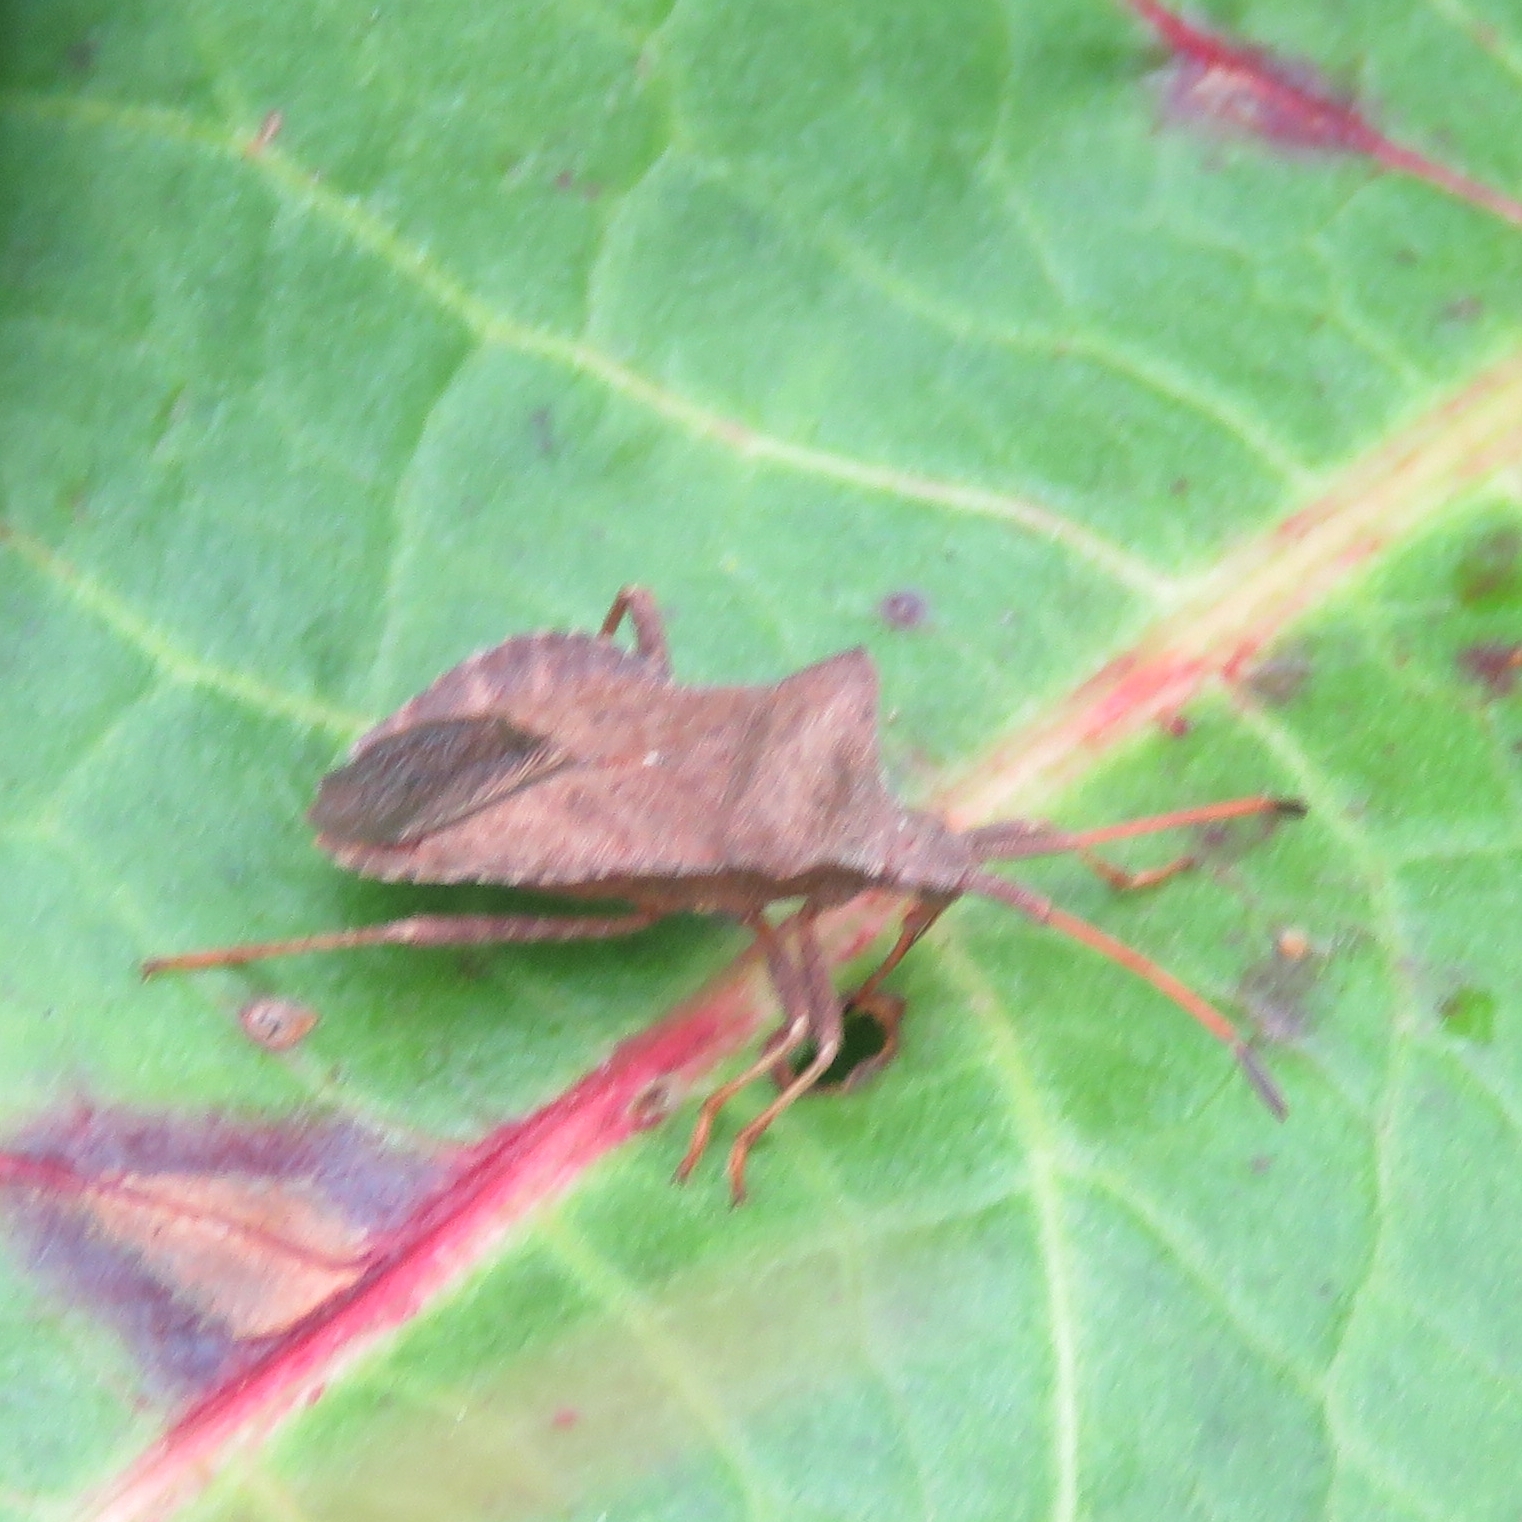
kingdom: Animalia
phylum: Arthropoda
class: Insecta
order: Hemiptera
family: Coreidae
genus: Coreus
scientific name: Coreus marginatus
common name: Dock bug
